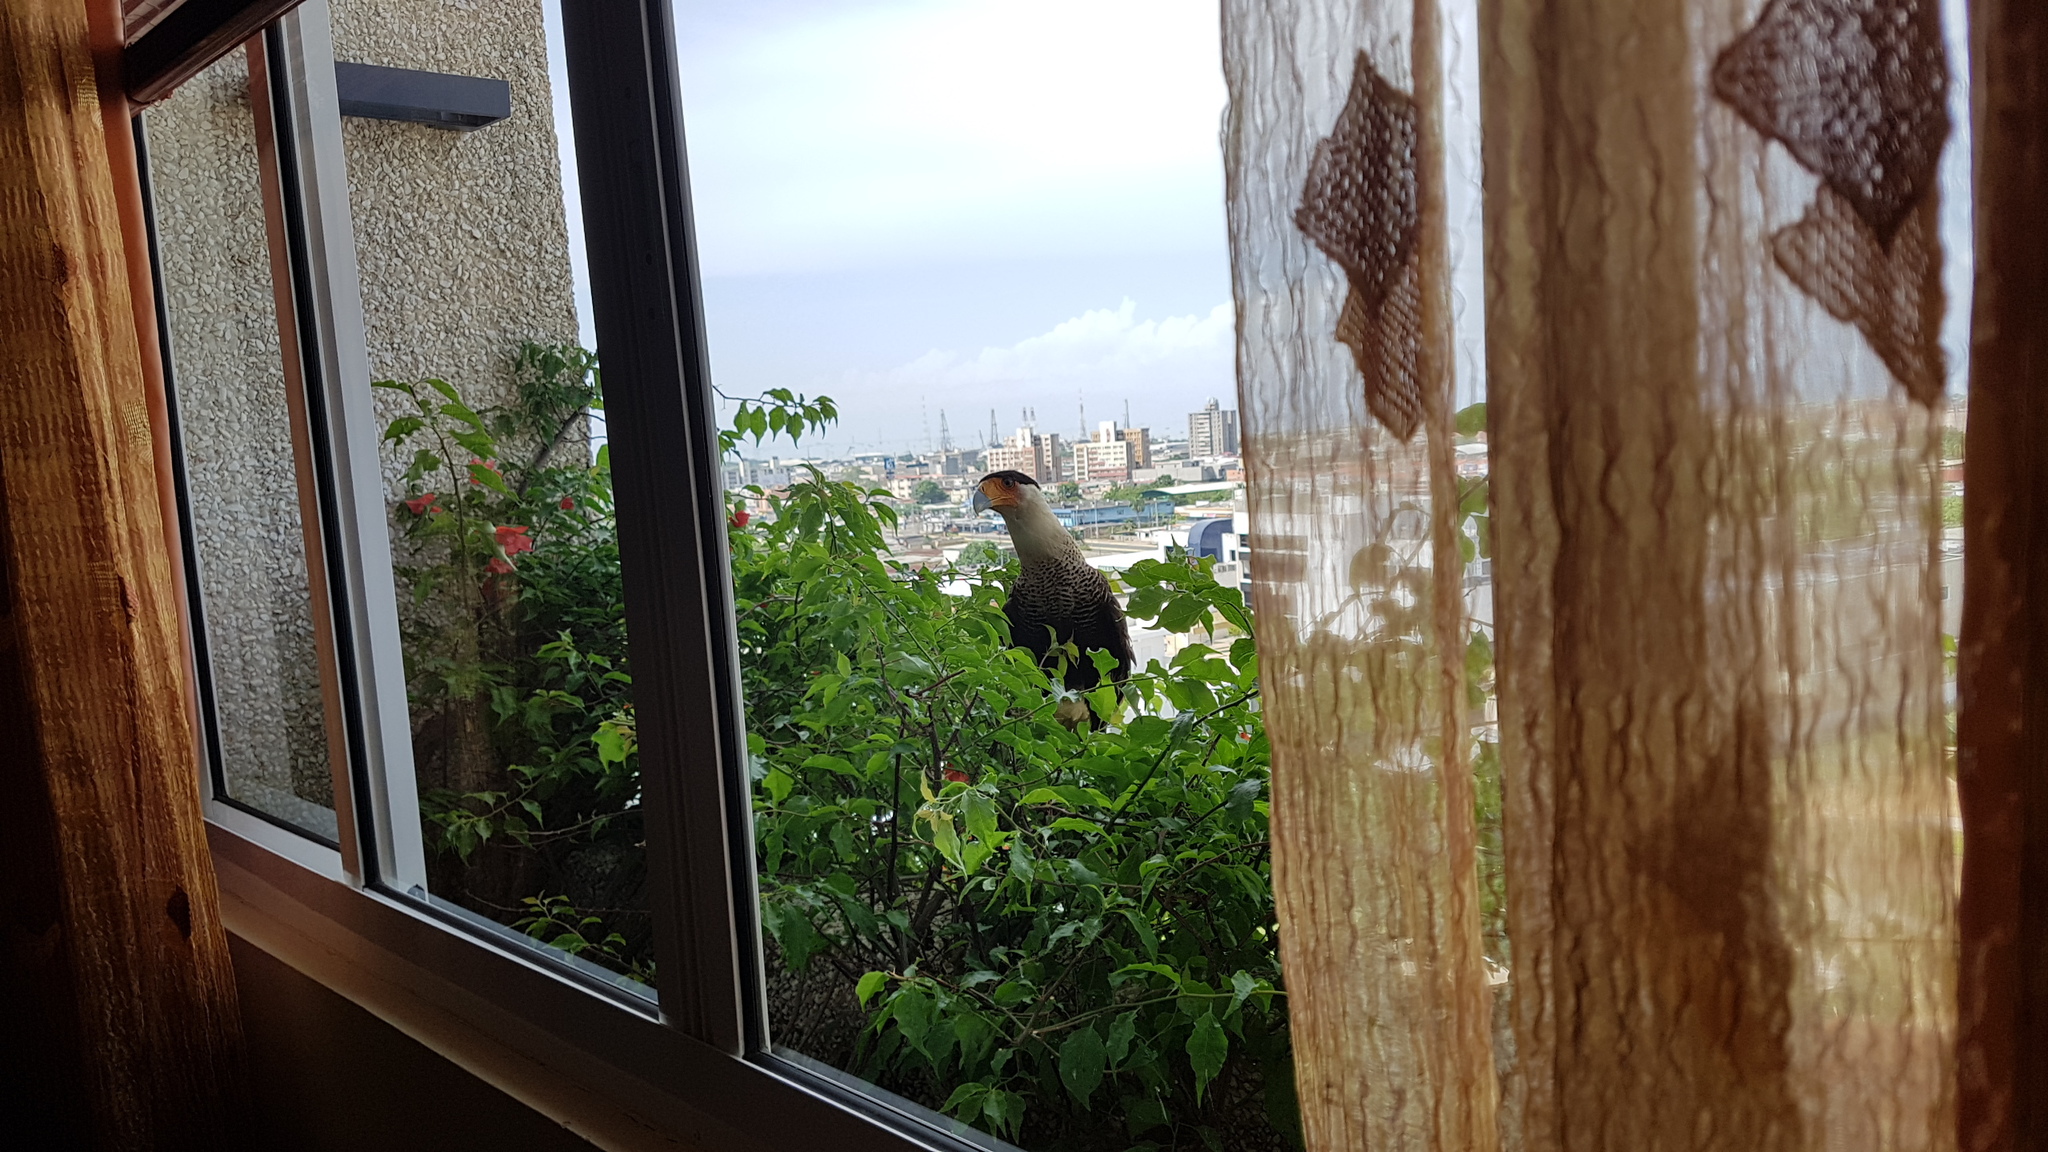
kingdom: Animalia
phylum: Chordata
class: Aves
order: Falconiformes
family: Falconidae
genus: Caracara
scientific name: Caracara plancus
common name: Southern caracara
